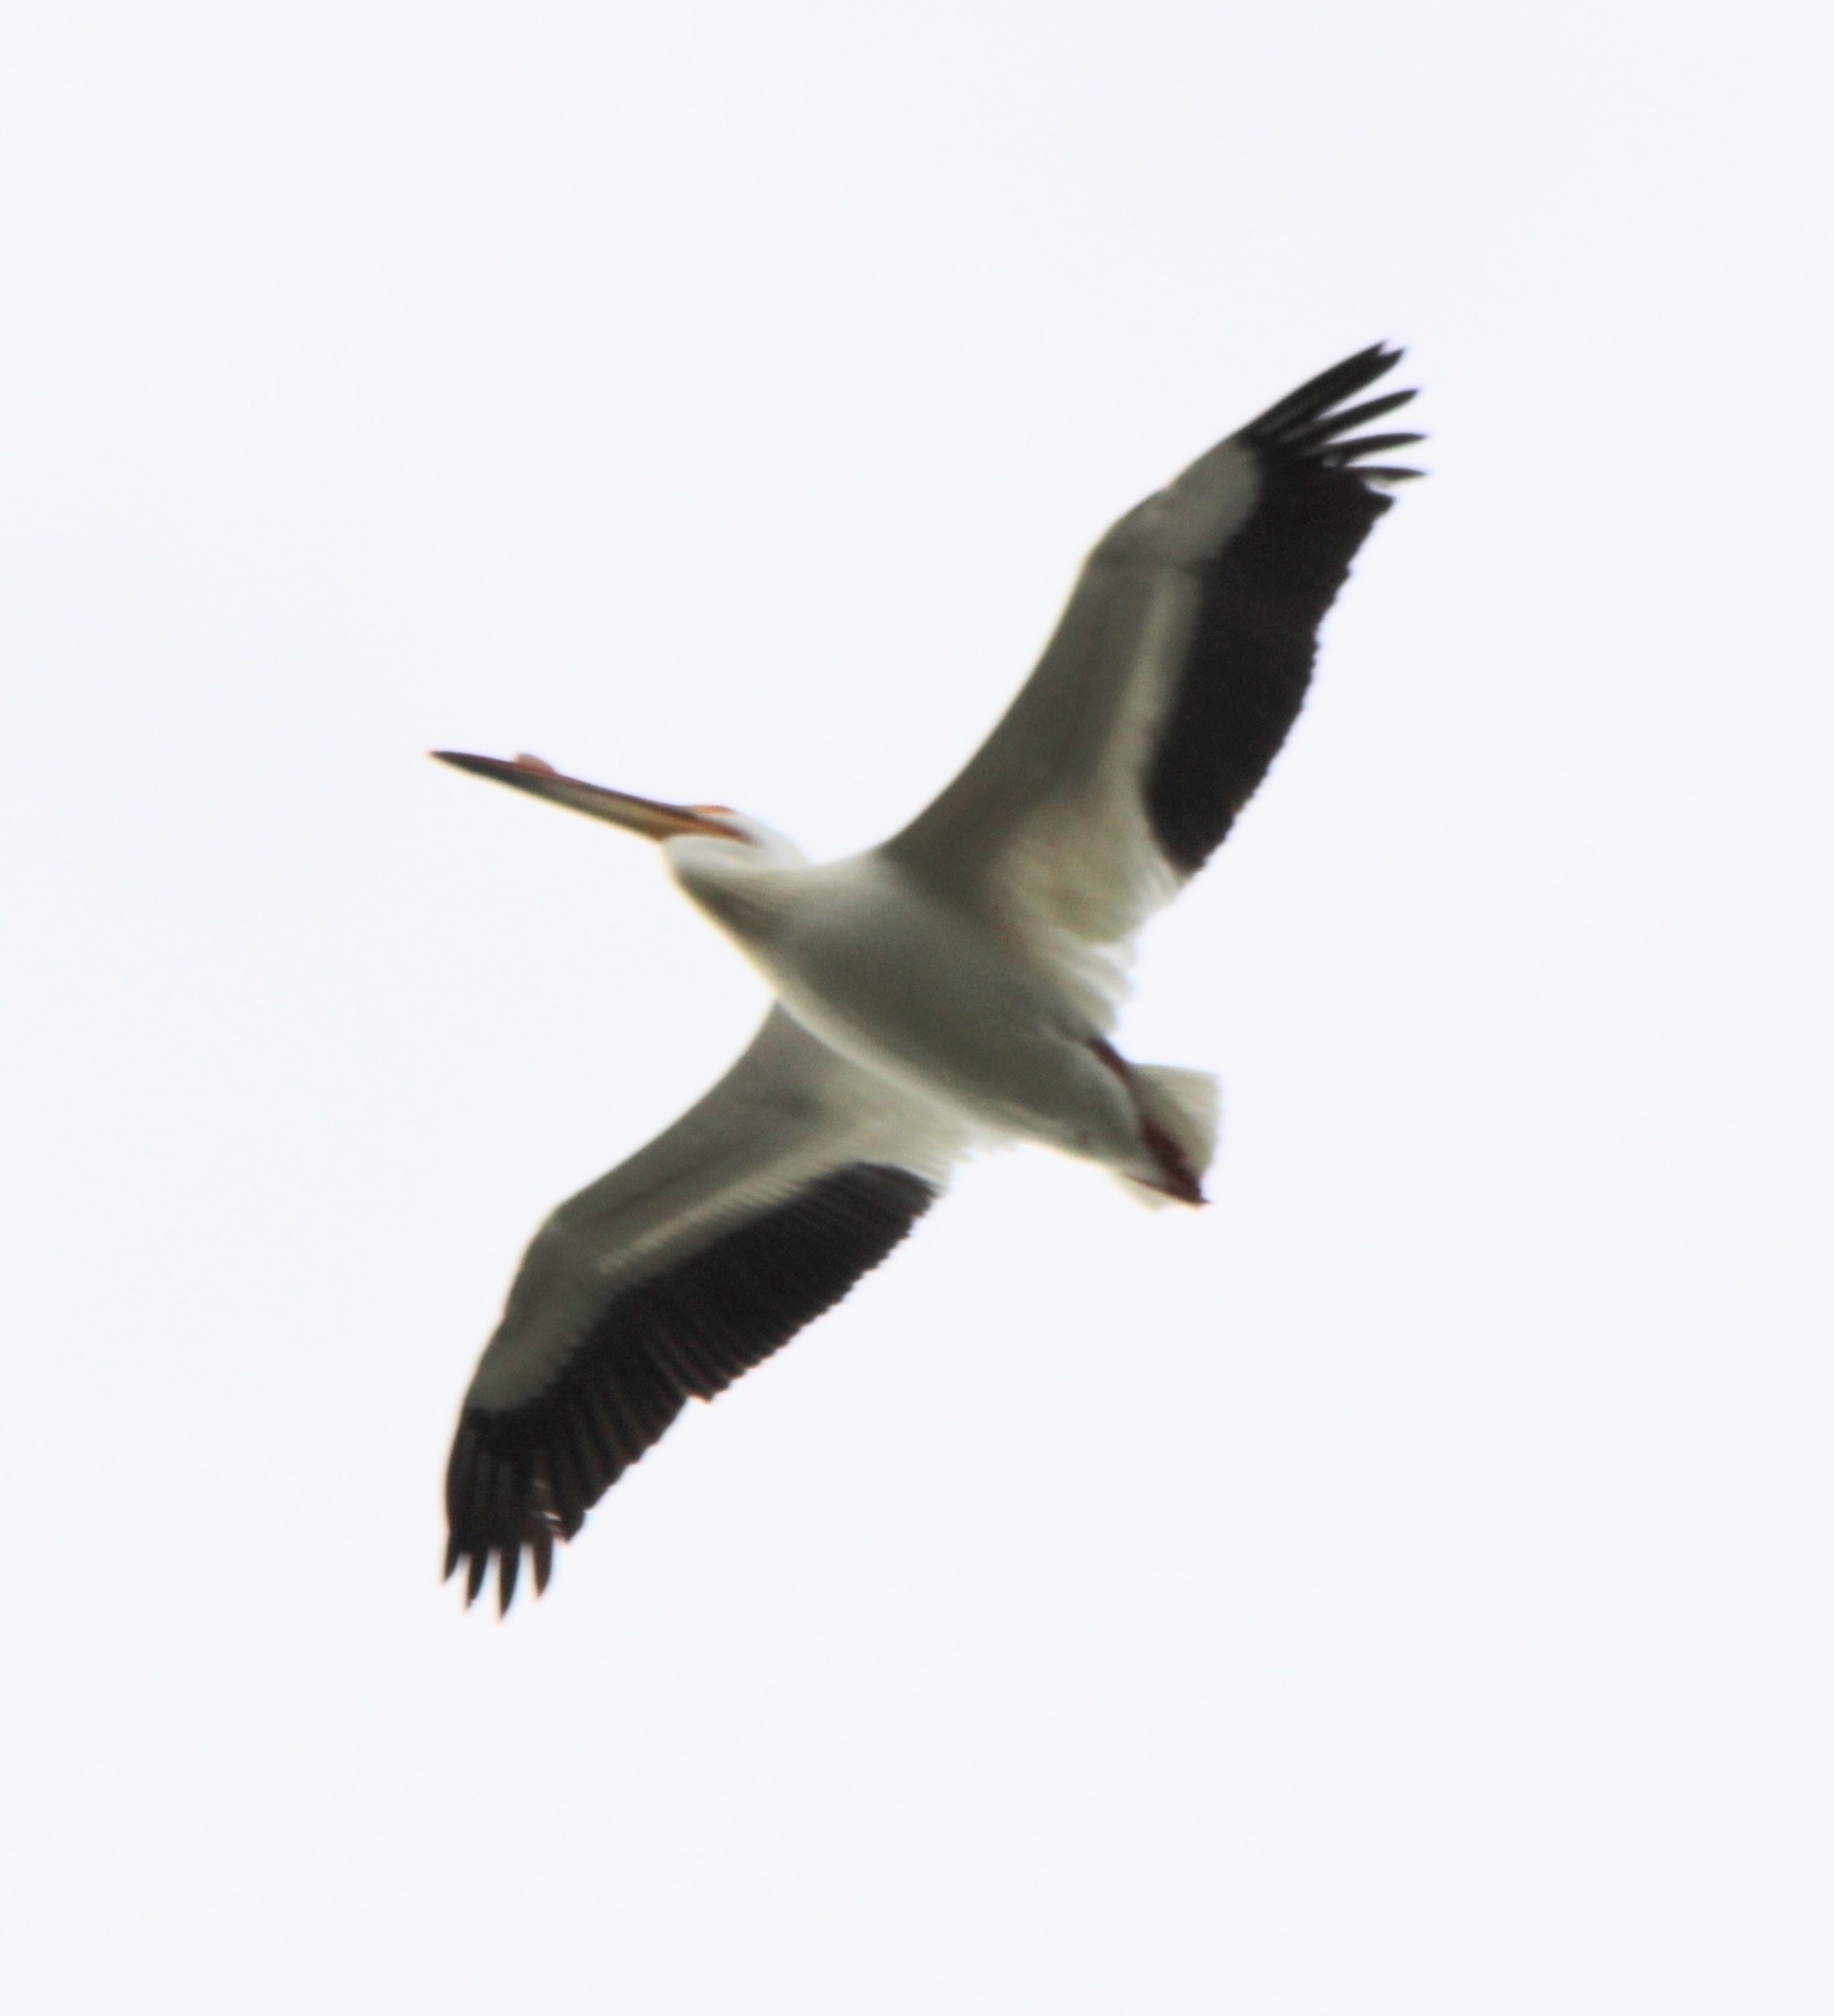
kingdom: Animalia
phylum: Chordata
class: Aves
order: Pelecaniformes
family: Pelecanidae
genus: Pelecanus
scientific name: Pelecanus erythrorhynchos
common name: American white pelican
